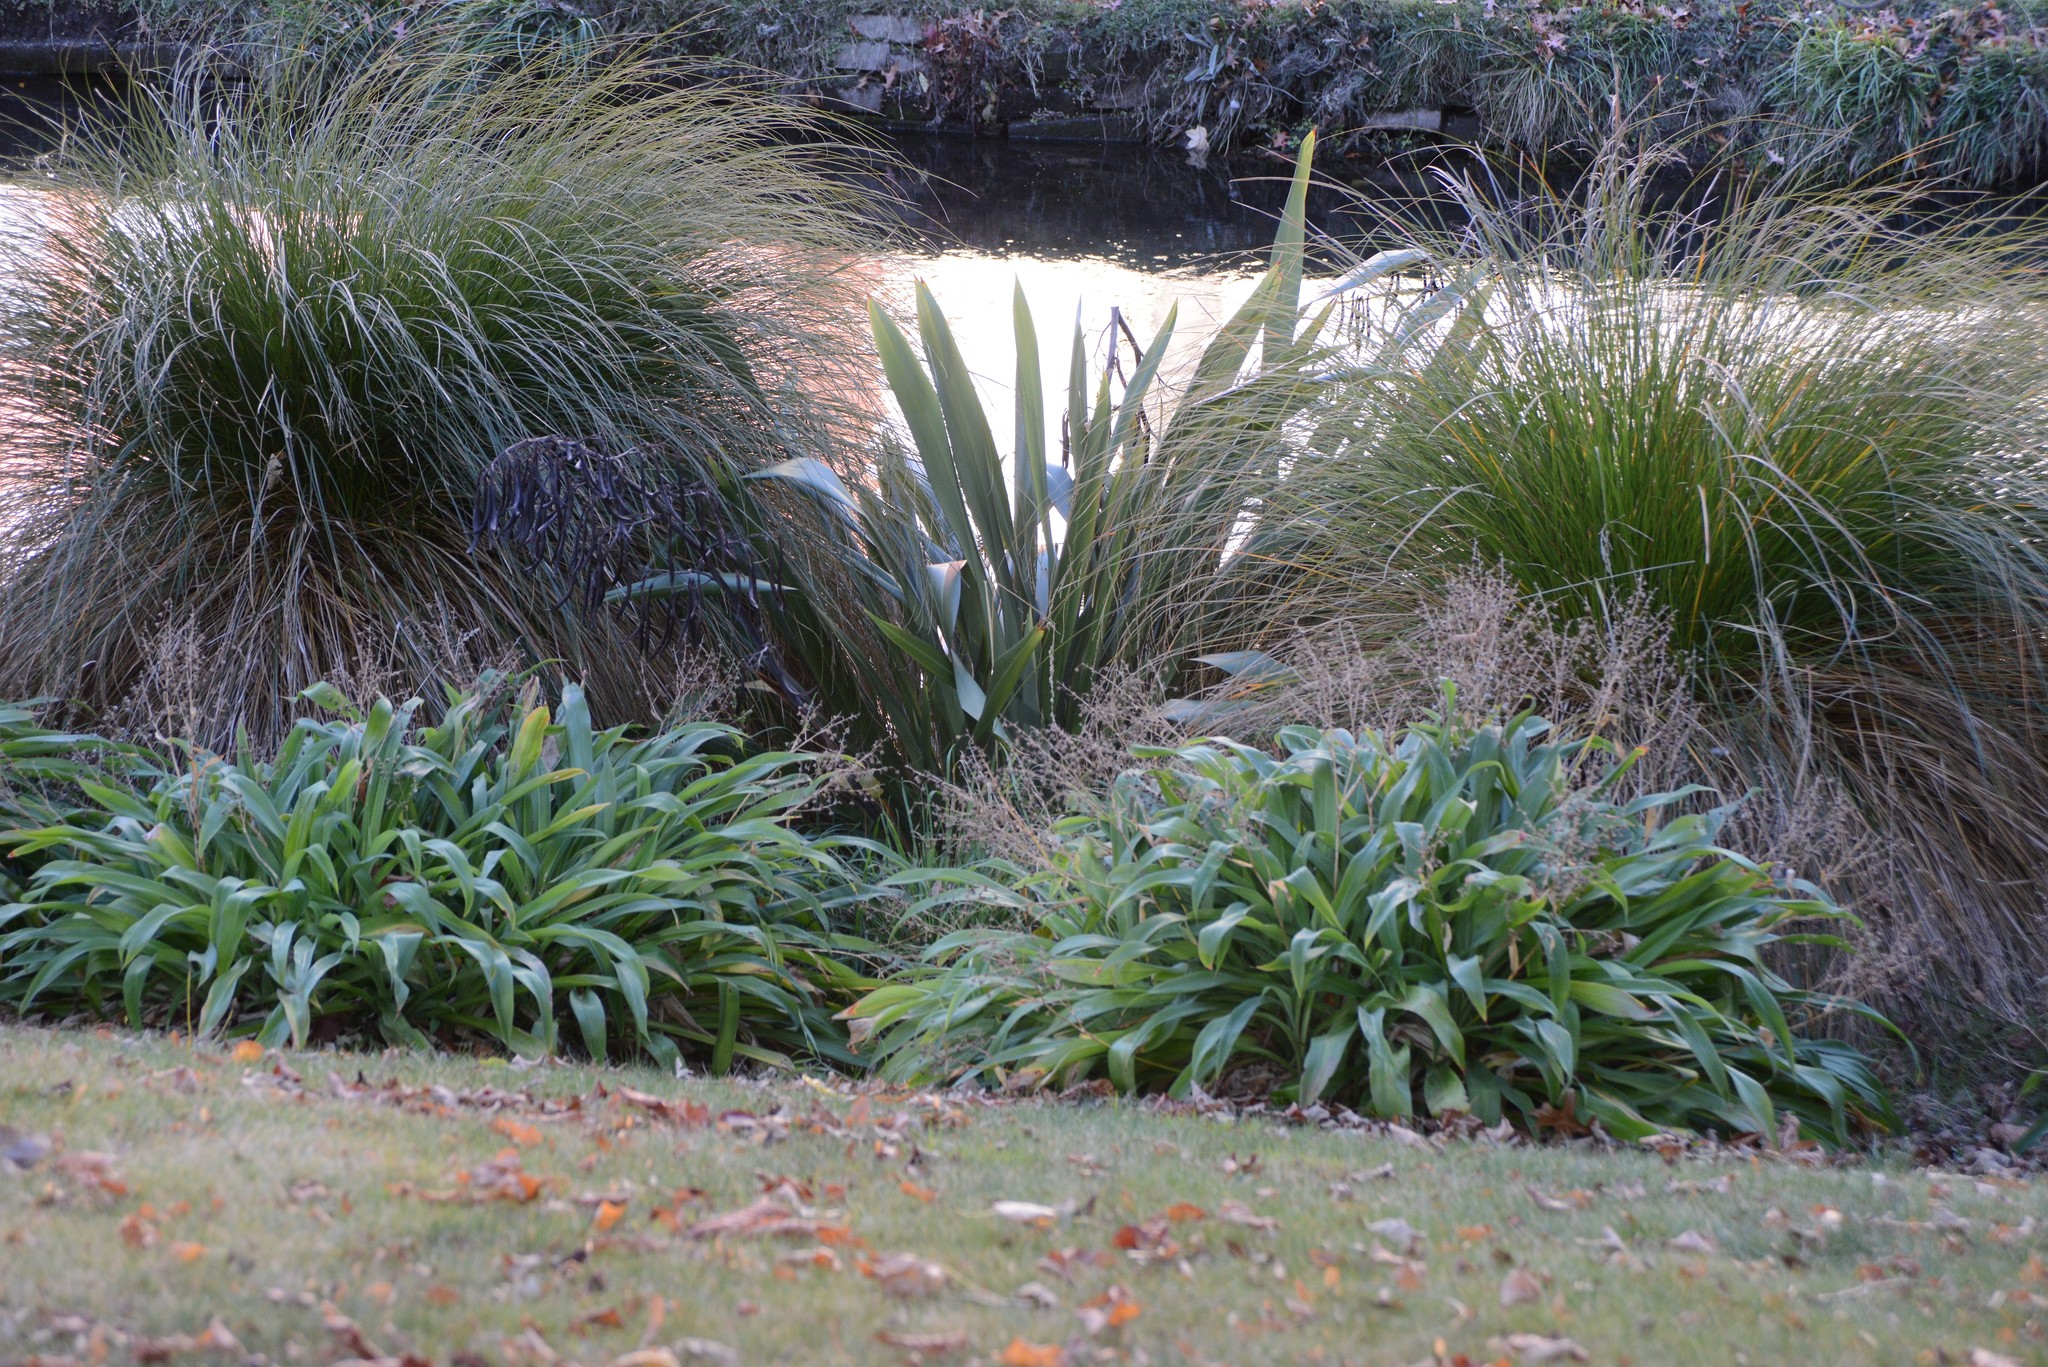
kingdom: Plantae
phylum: Tracheophyta
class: Liliopsida
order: Asparagales
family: Asphodelaceae
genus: Phormium
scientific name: Phormium tenax
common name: New zealand flax
